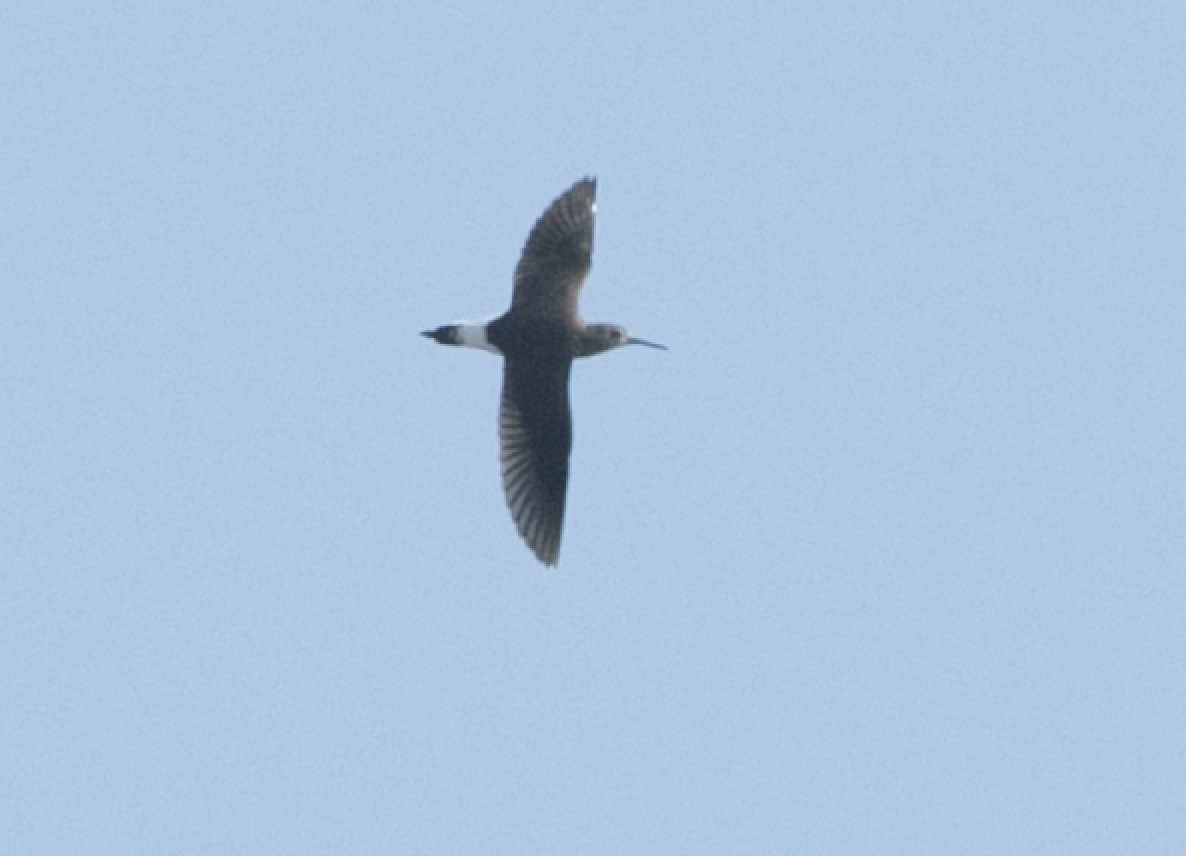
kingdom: Animalia
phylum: Chordata
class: Aves
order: Charadriiformes
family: Scolopacidae
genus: Tringa
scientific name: Tringa ochropus
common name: Green sandpiper
